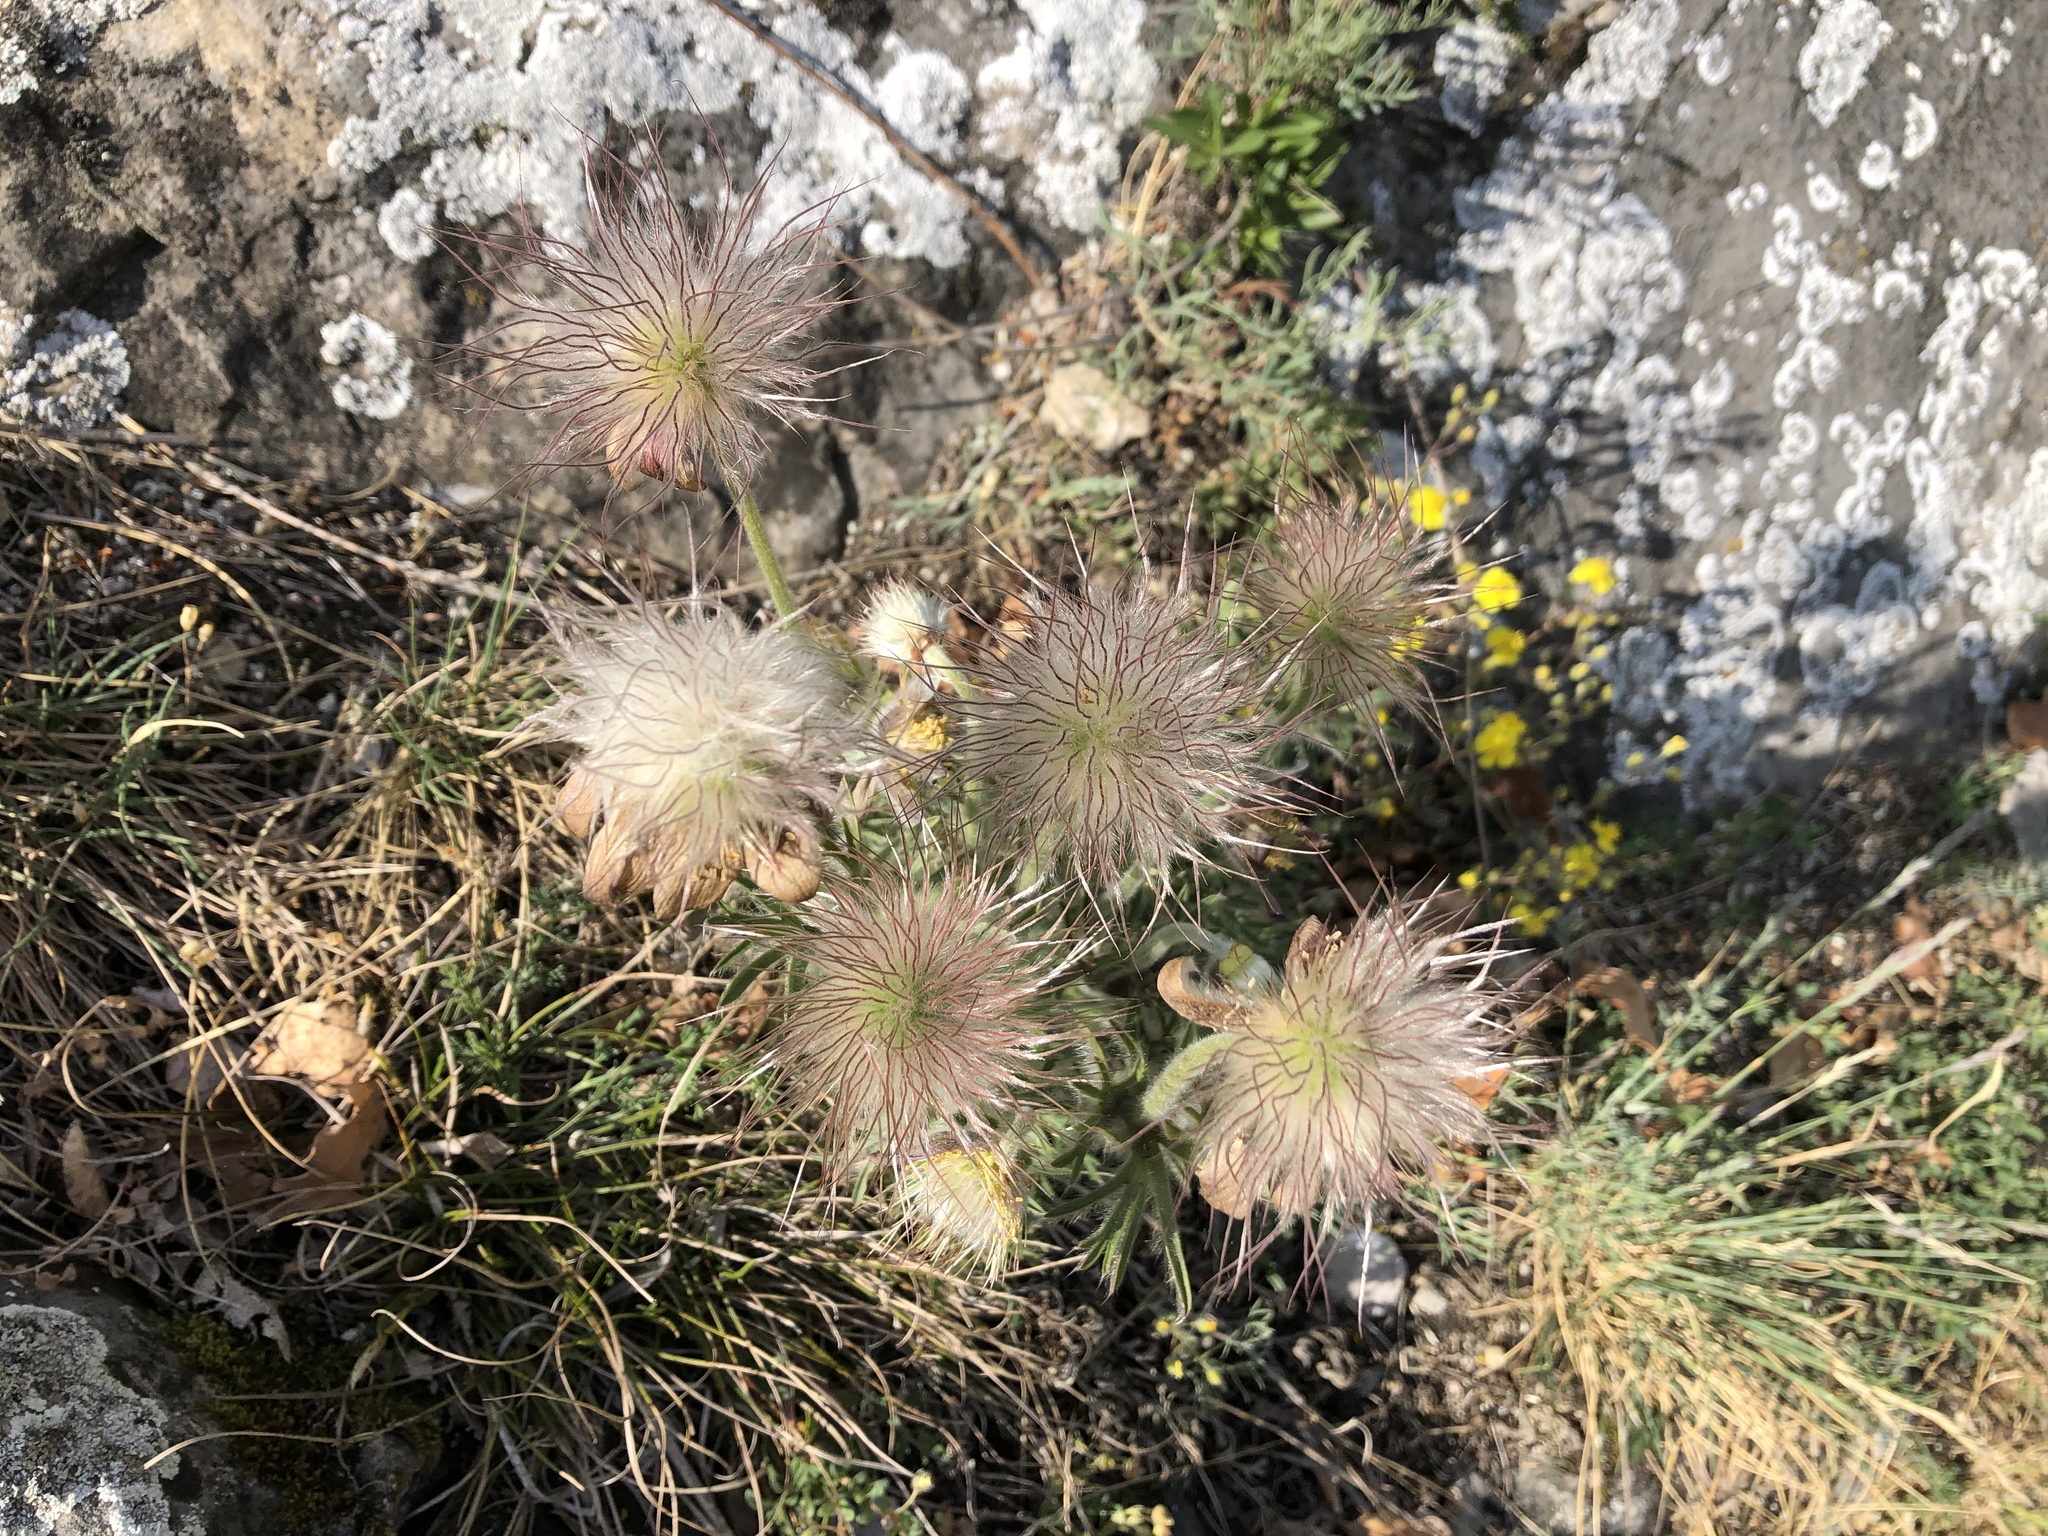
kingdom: Plantae
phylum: Tracheophyta
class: Magnoliopsida
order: Ranunculales
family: Ranunculaceae
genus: Pulsatilla
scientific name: Pulsatilla pratensis
